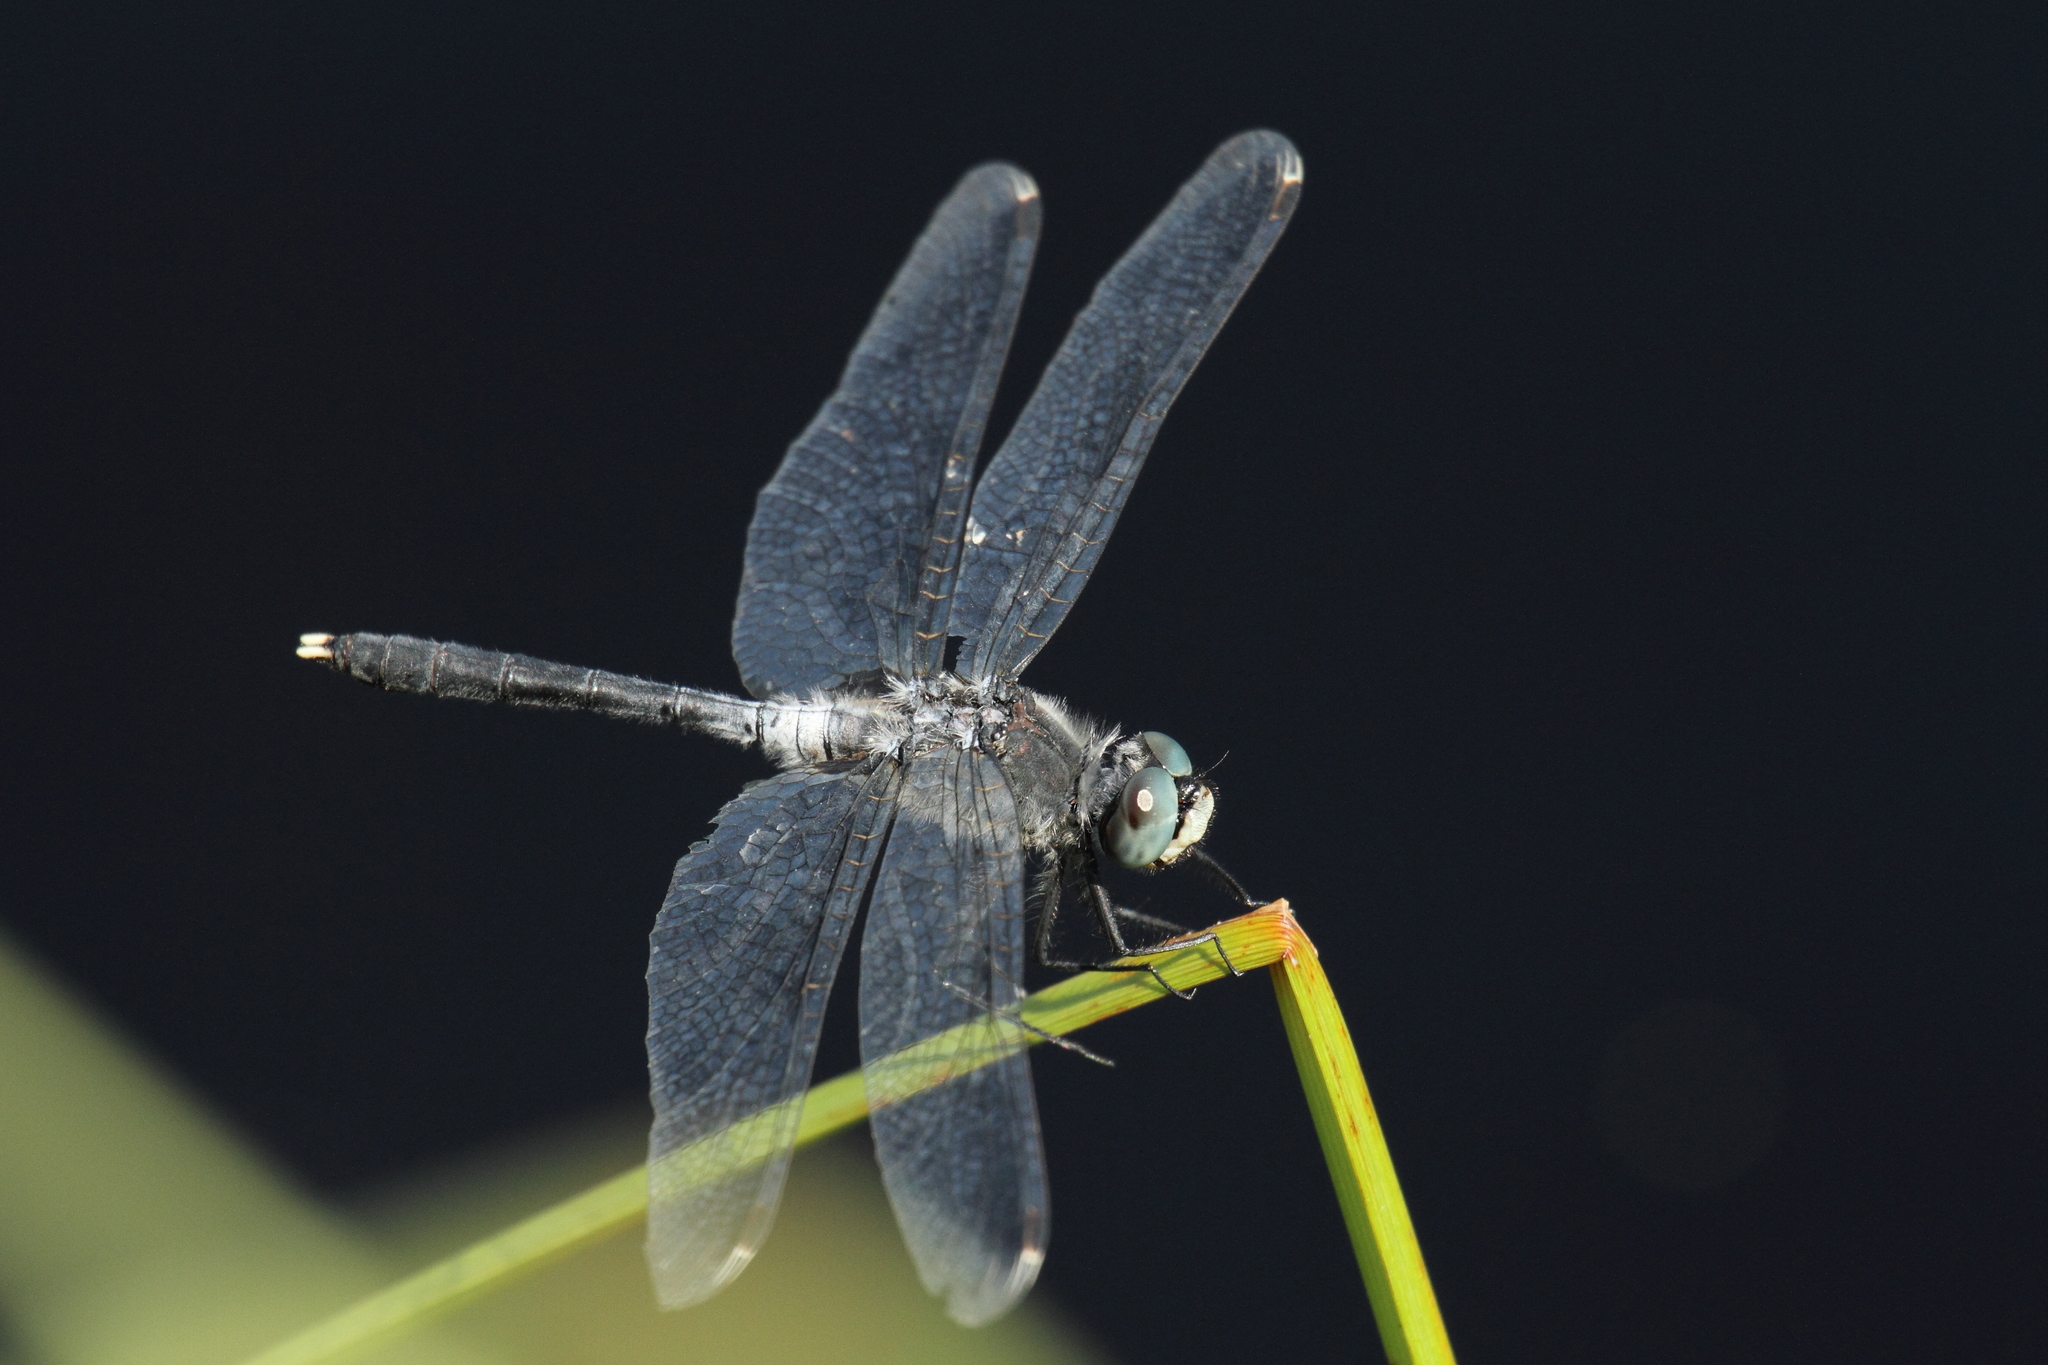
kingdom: Animalia
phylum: Arthropoda
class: Insecta
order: Odonata
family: Libellulidae
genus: Leucorrhinia
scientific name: Leucorrhinia albifrons
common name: Dark whiteface
